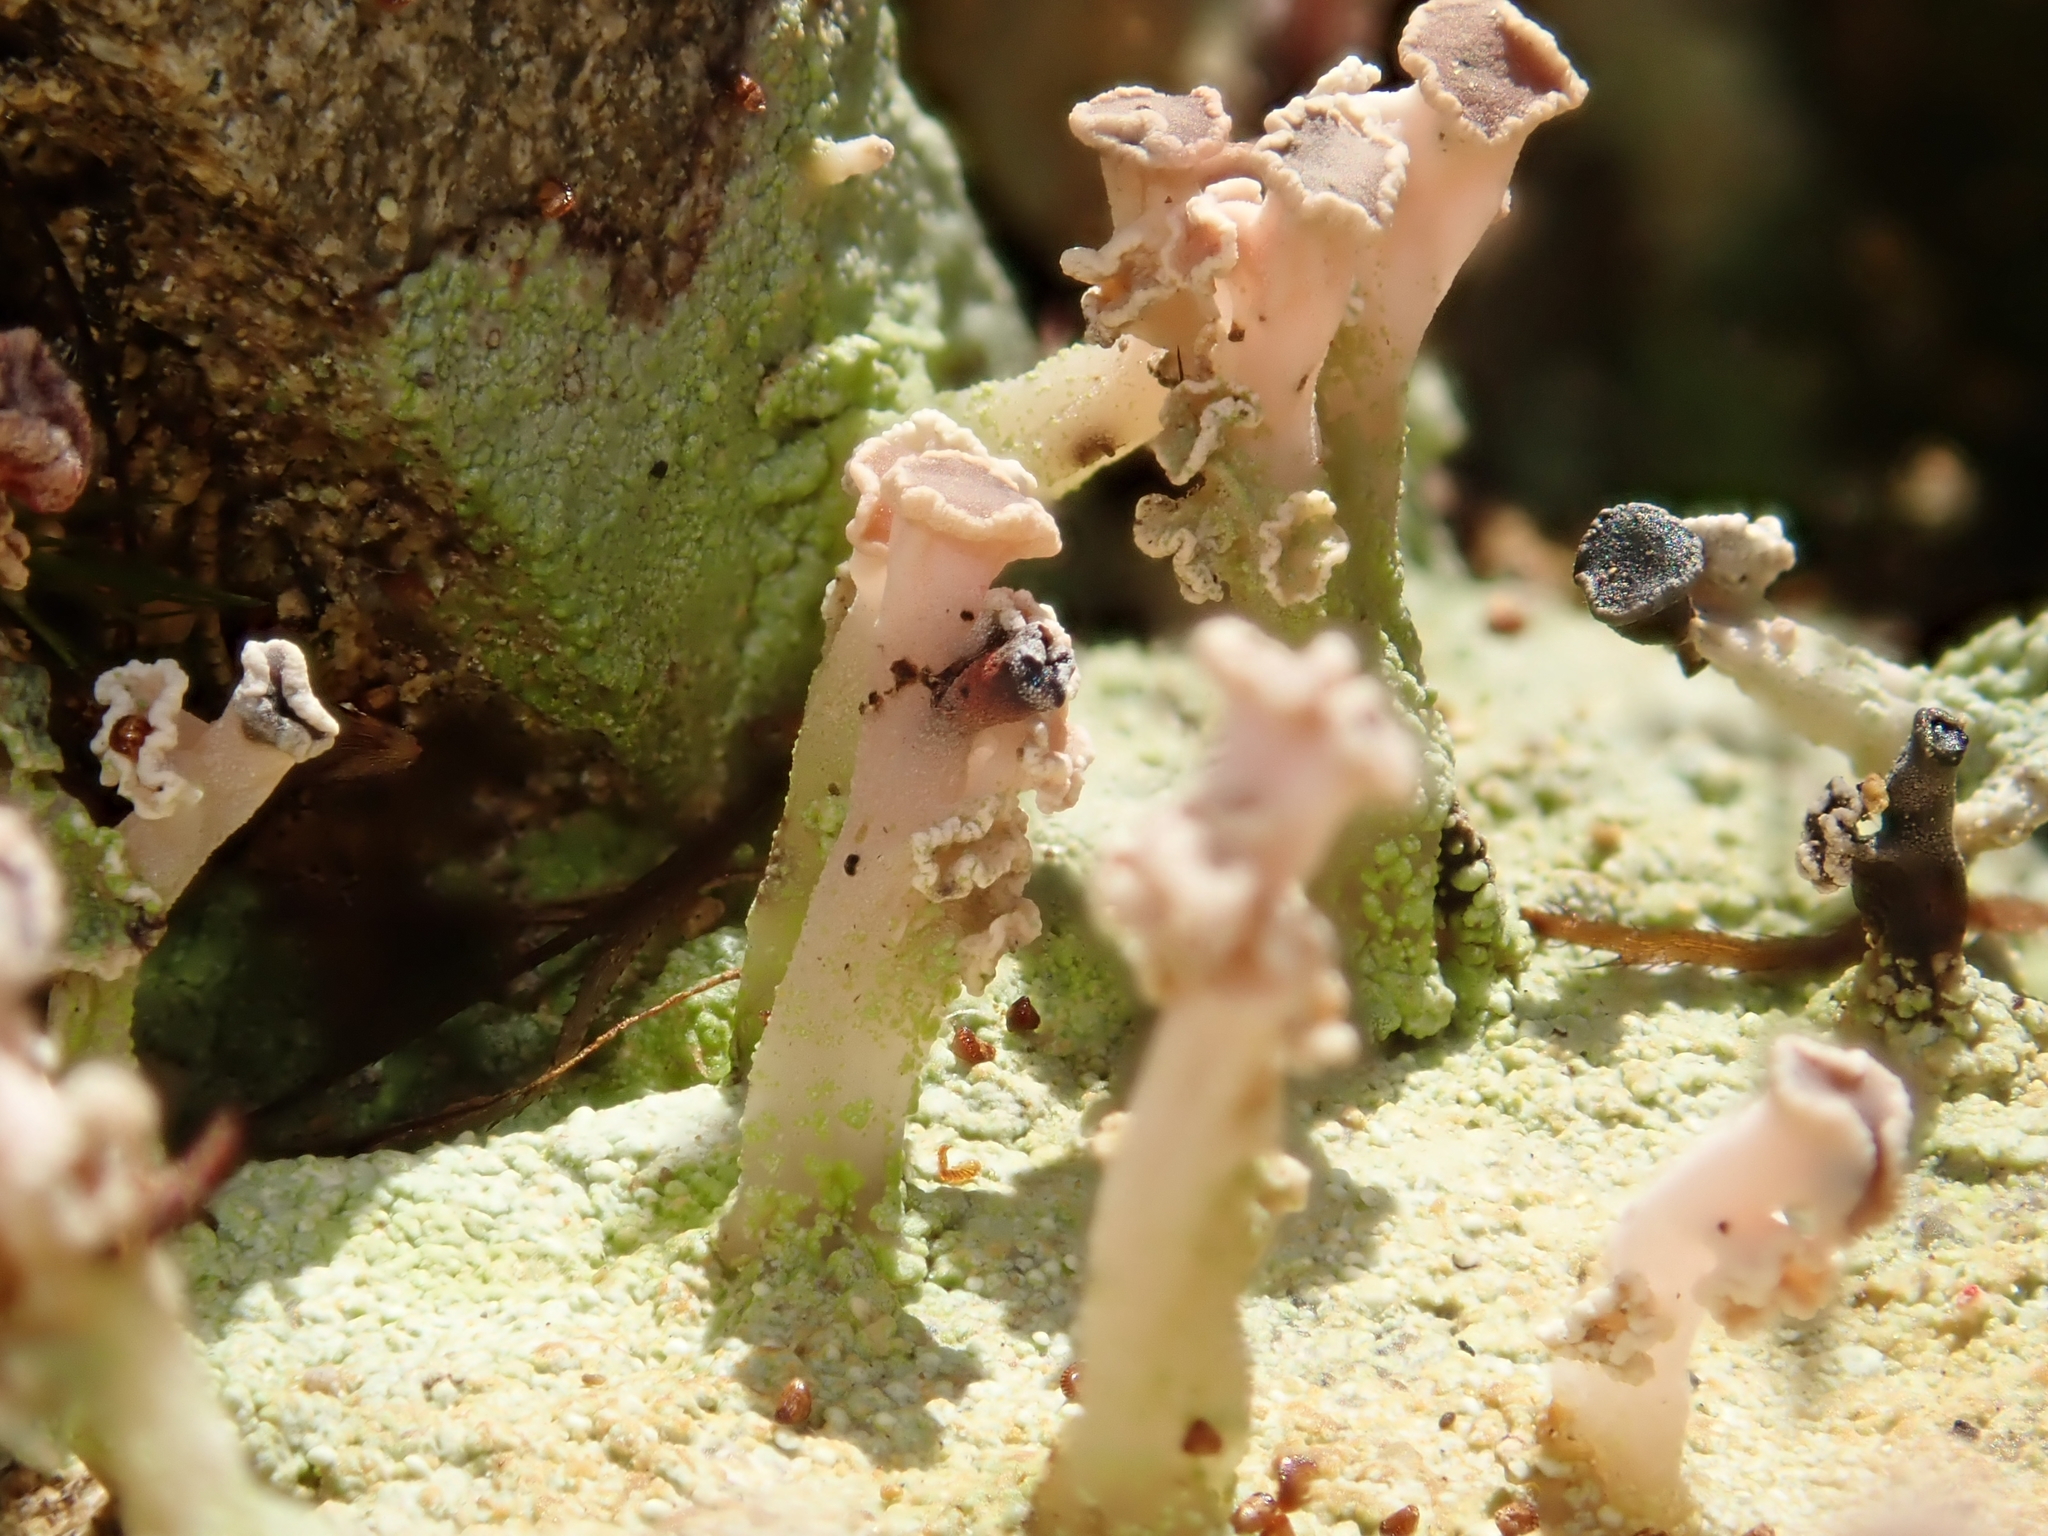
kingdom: Fungi
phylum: Ascomycota
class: Lecanoromycetes
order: Baeomycetales
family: Baeomycetaceae
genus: Baeomyces
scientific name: Baeomyces heteromorphus
